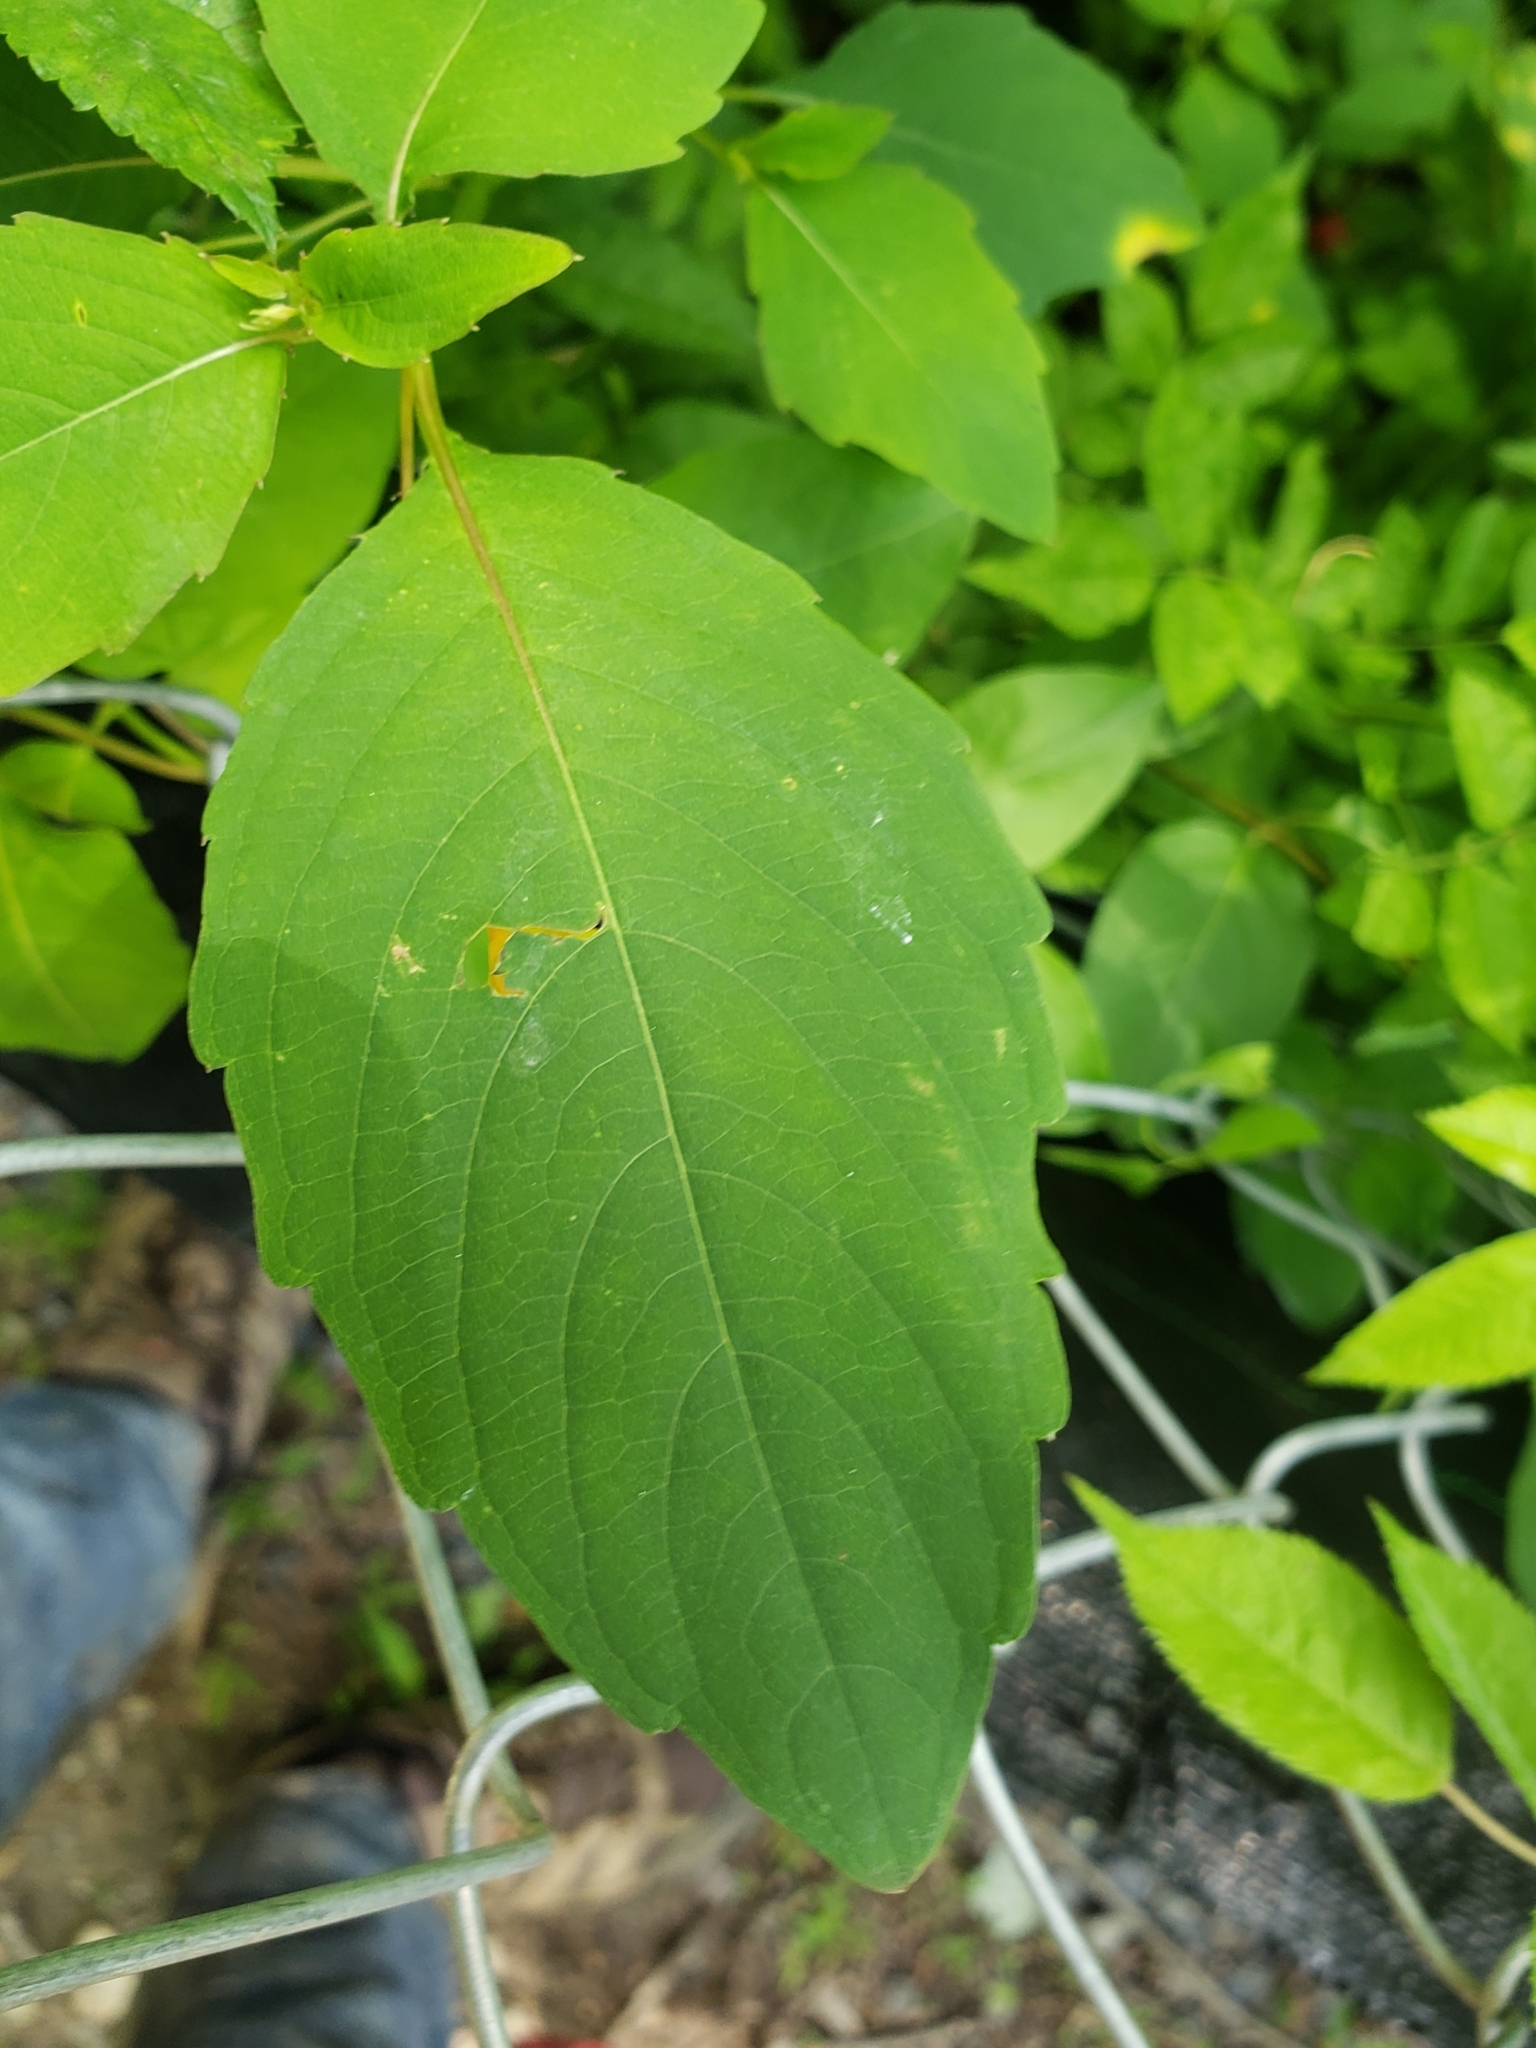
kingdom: Plantae
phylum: Tracheophyta
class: Magnoliopsida
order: Ericales
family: Balsaminaceae
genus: Impatiens
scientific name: Impatiens capensis
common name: Orange balsam
